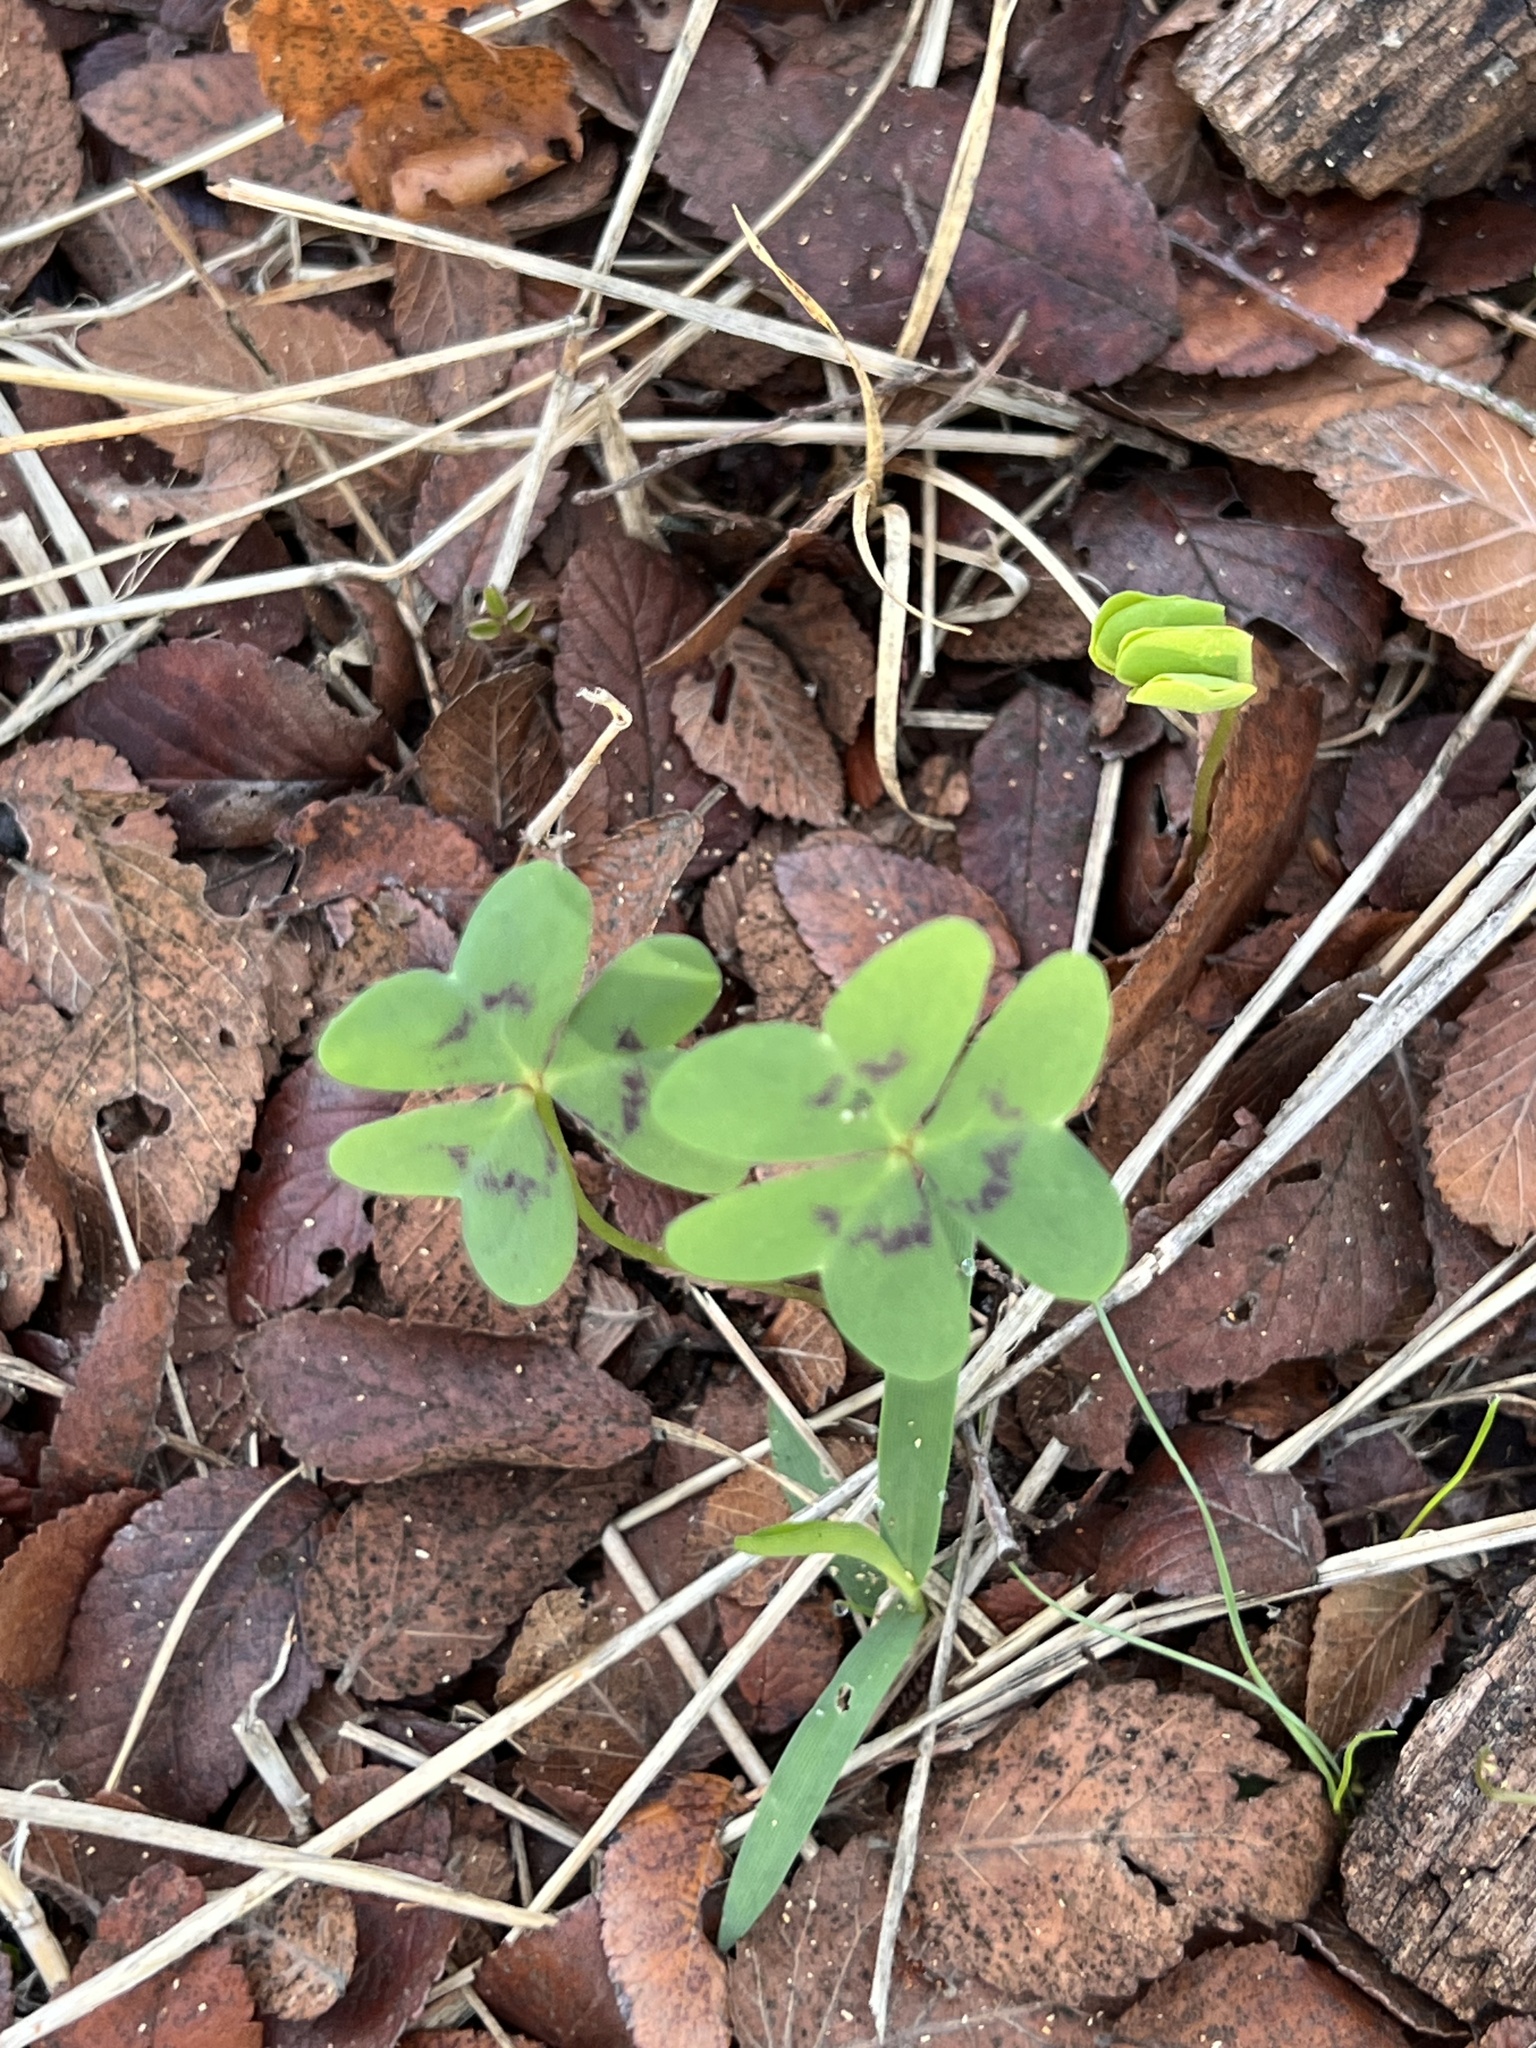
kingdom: Plantae
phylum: Tracheophyta
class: Magnoliopsida
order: Oxalidales
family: Oxalidaceae
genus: Oxalis
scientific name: Oxalis drummondii
